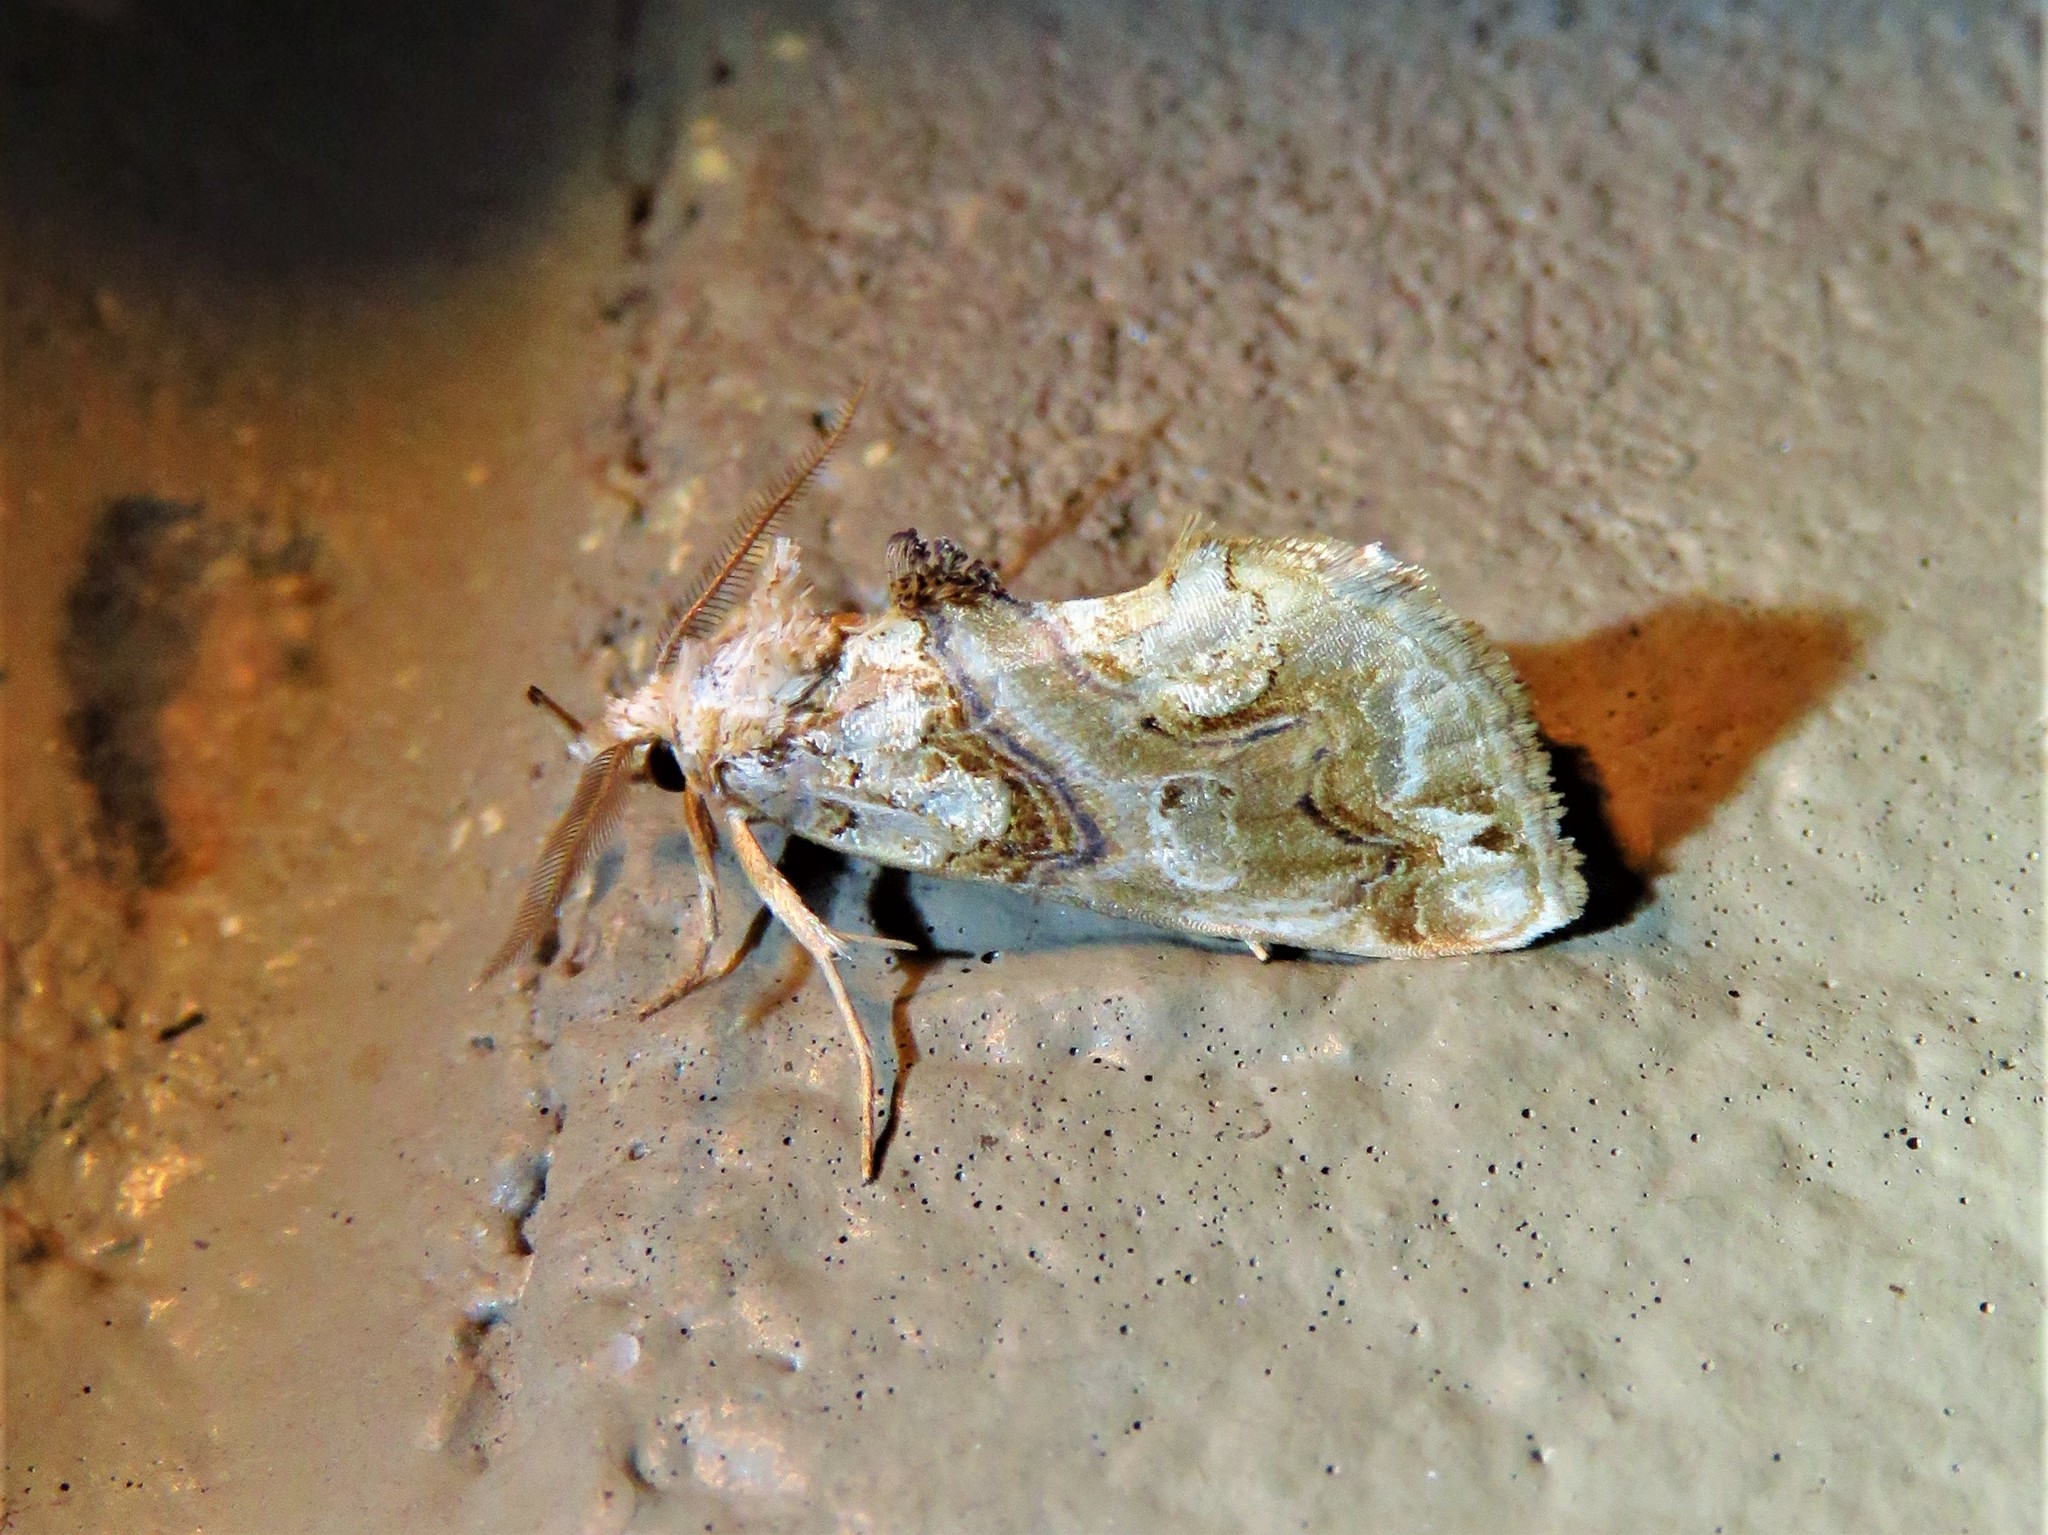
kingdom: Animalia
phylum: Arthropoda
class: Insecta
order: Lepidoptera
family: Erebidae
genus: Plusiodonta
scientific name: Plusiodonta compressipalpis
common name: Moonseed moth
